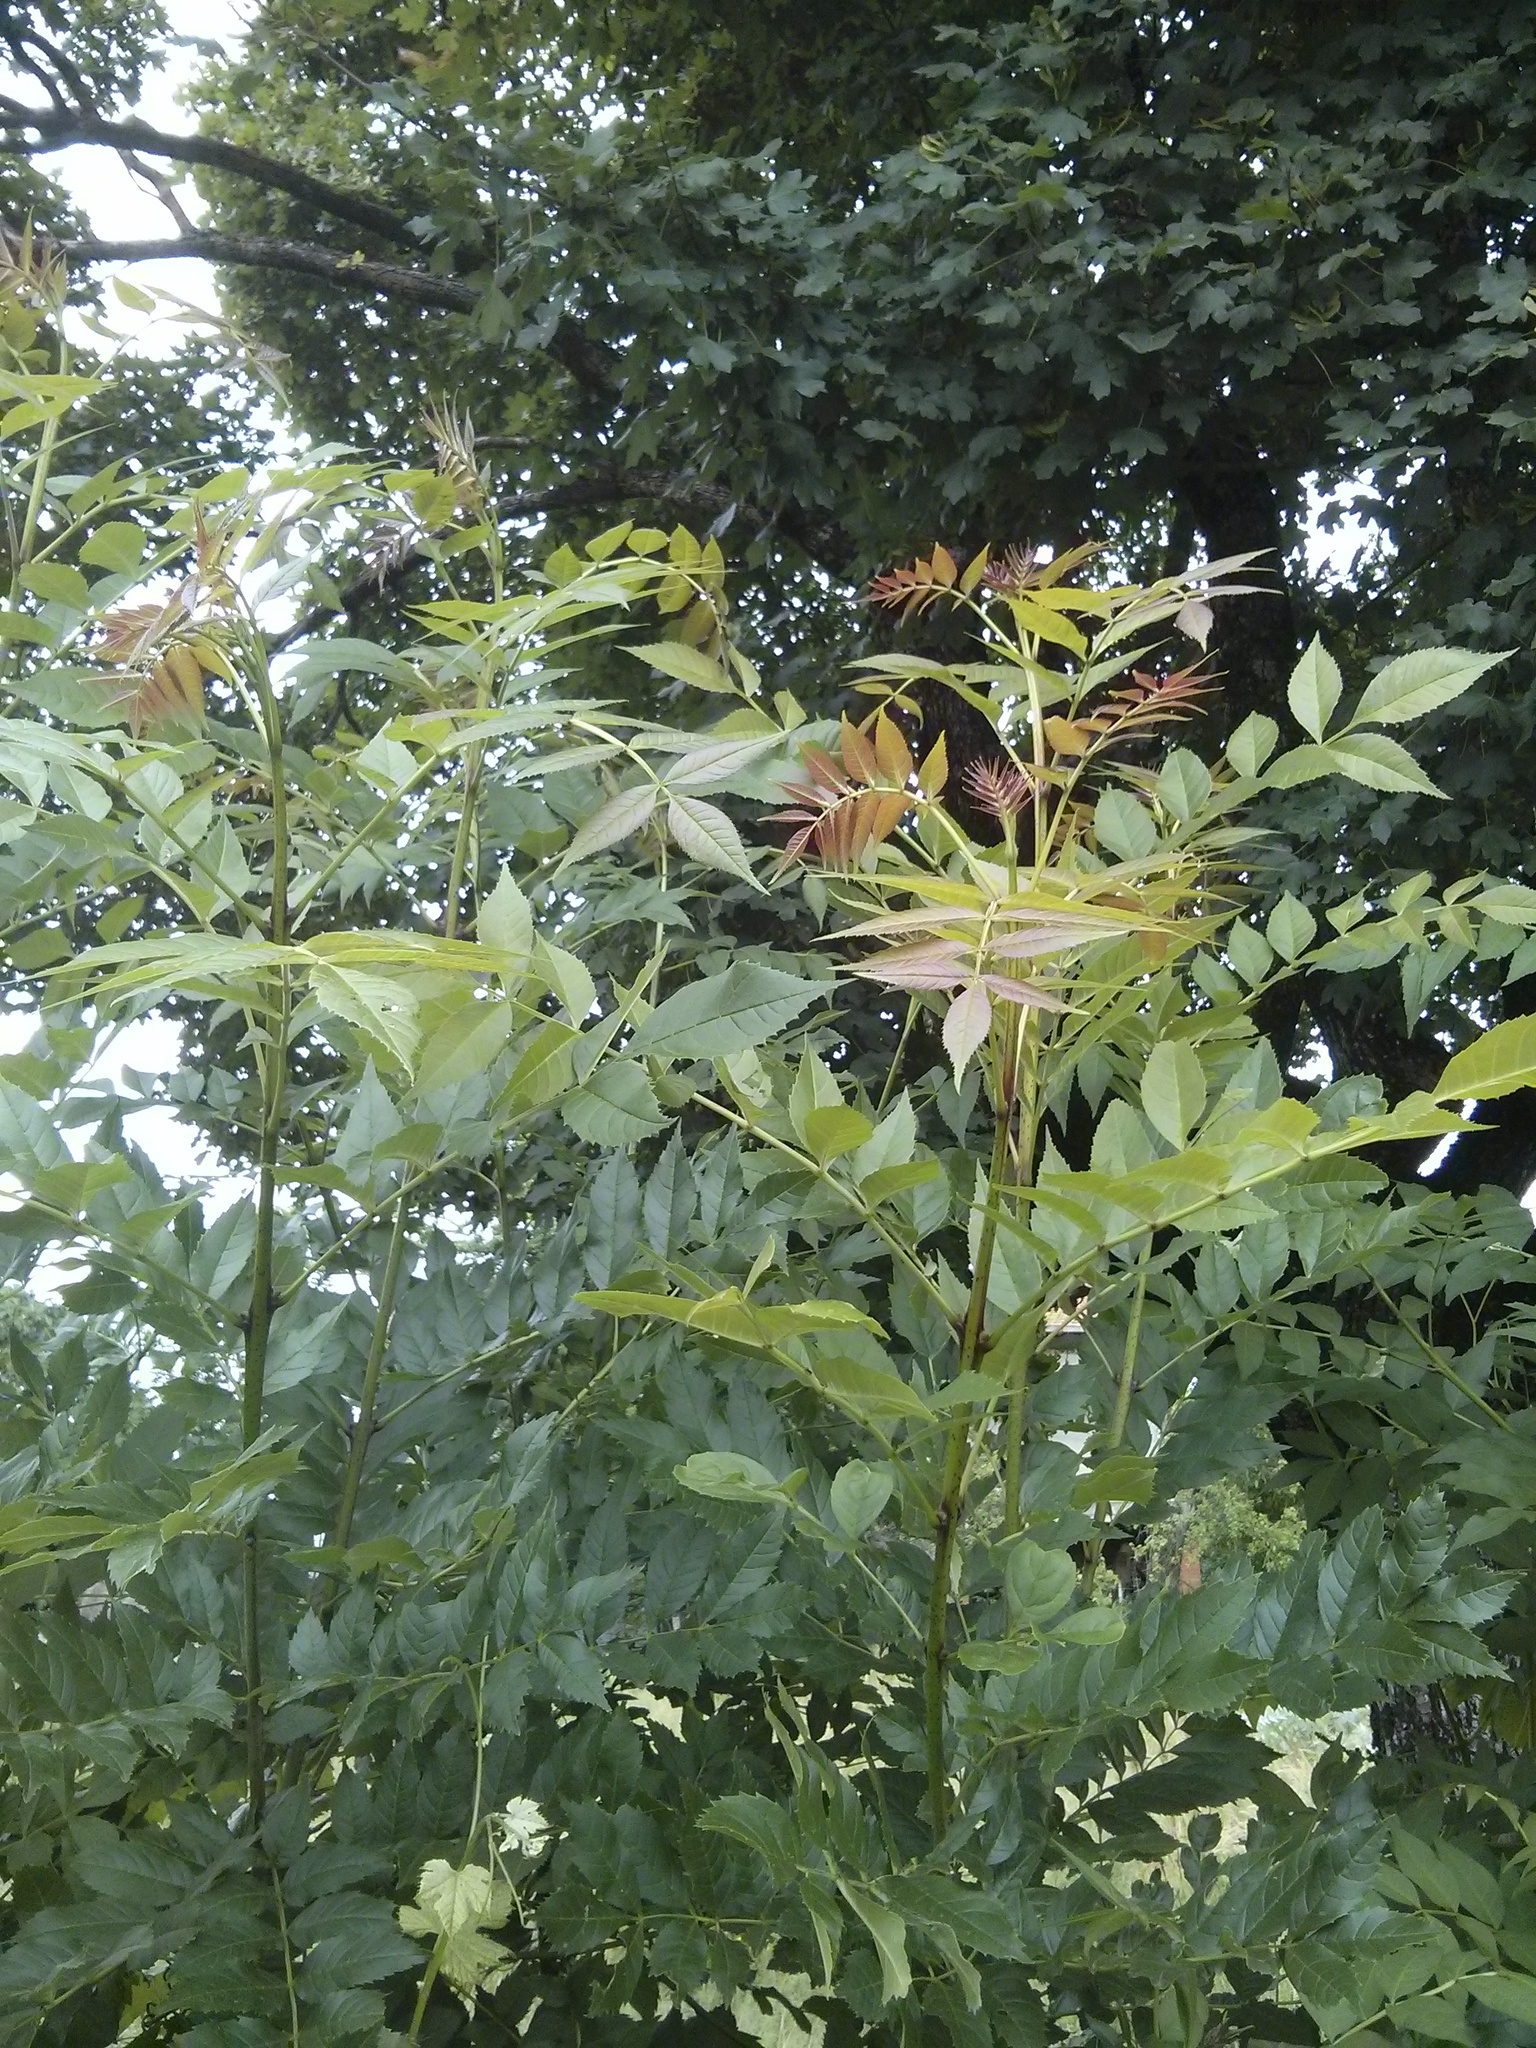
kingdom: Plantae
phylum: Tracheophyta
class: Magnoliopsida
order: Lamiales
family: Oleaceae
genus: Fraxinus
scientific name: Fraxinus excelsior
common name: European ash
